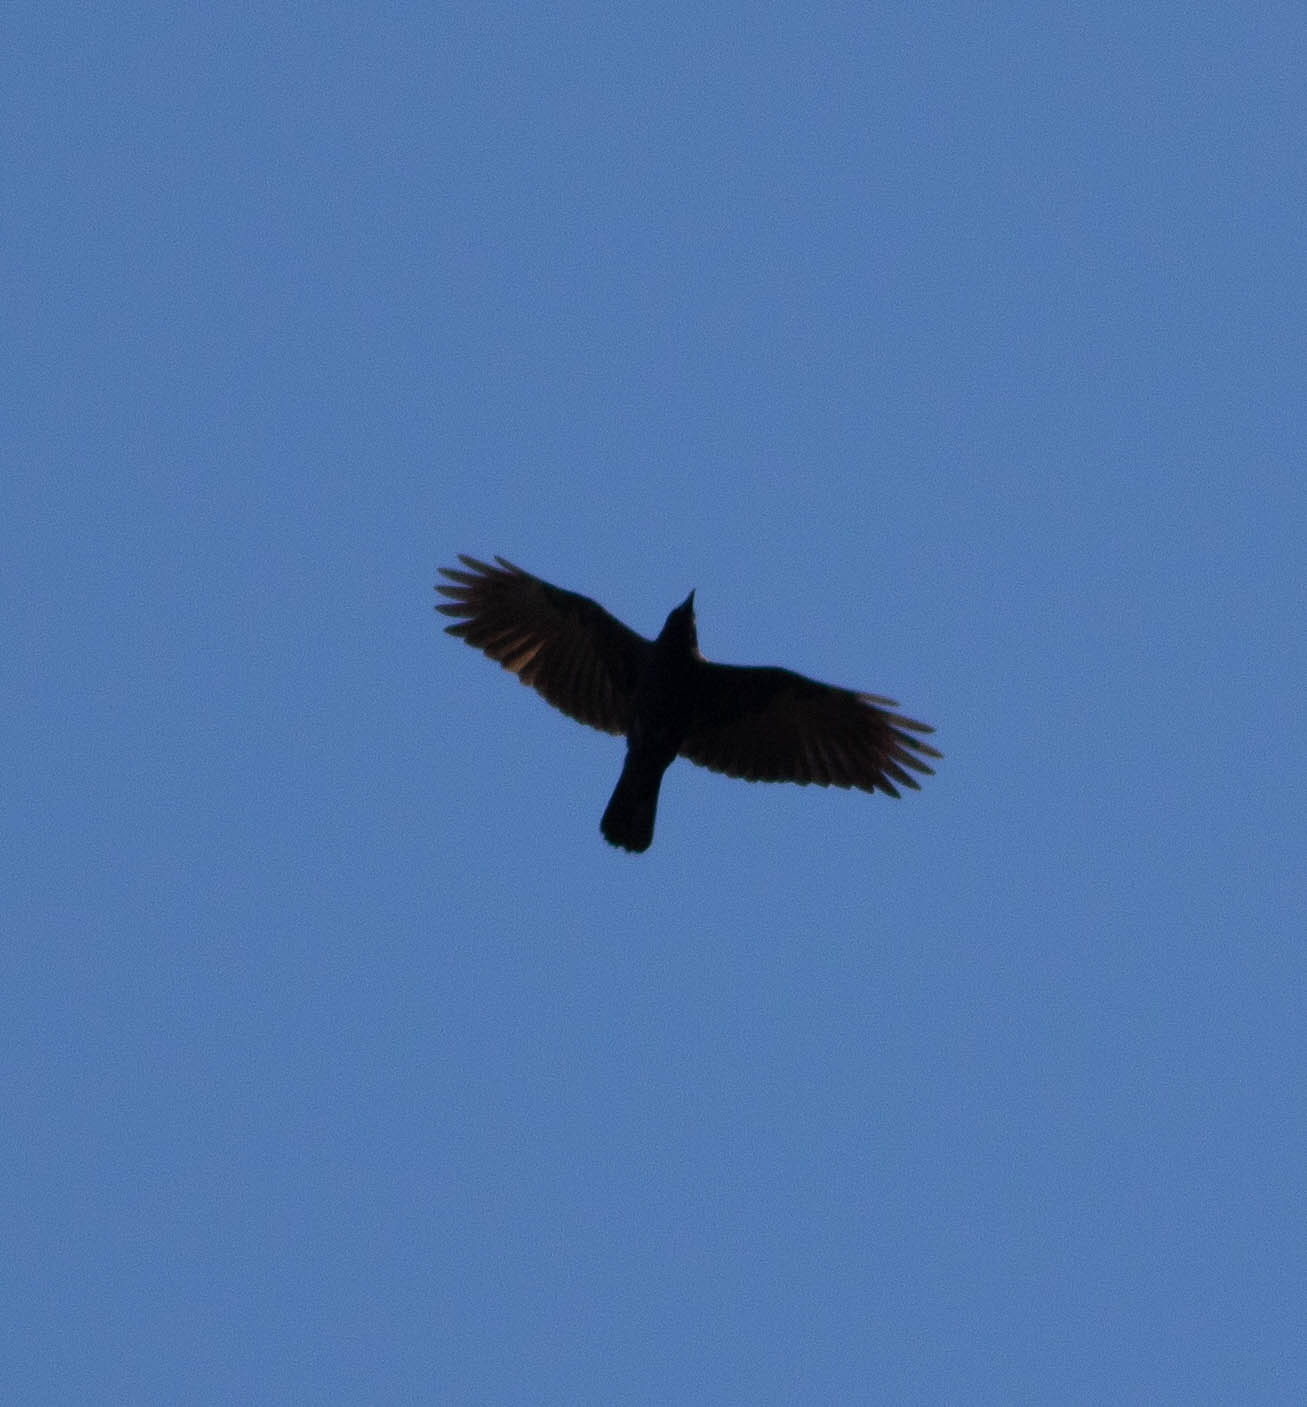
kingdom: Animalia
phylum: Chordata
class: Aves
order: Passeriformes
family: Corvidae
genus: Corvus
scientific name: Corvus brachyrhynchos
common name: American crow
